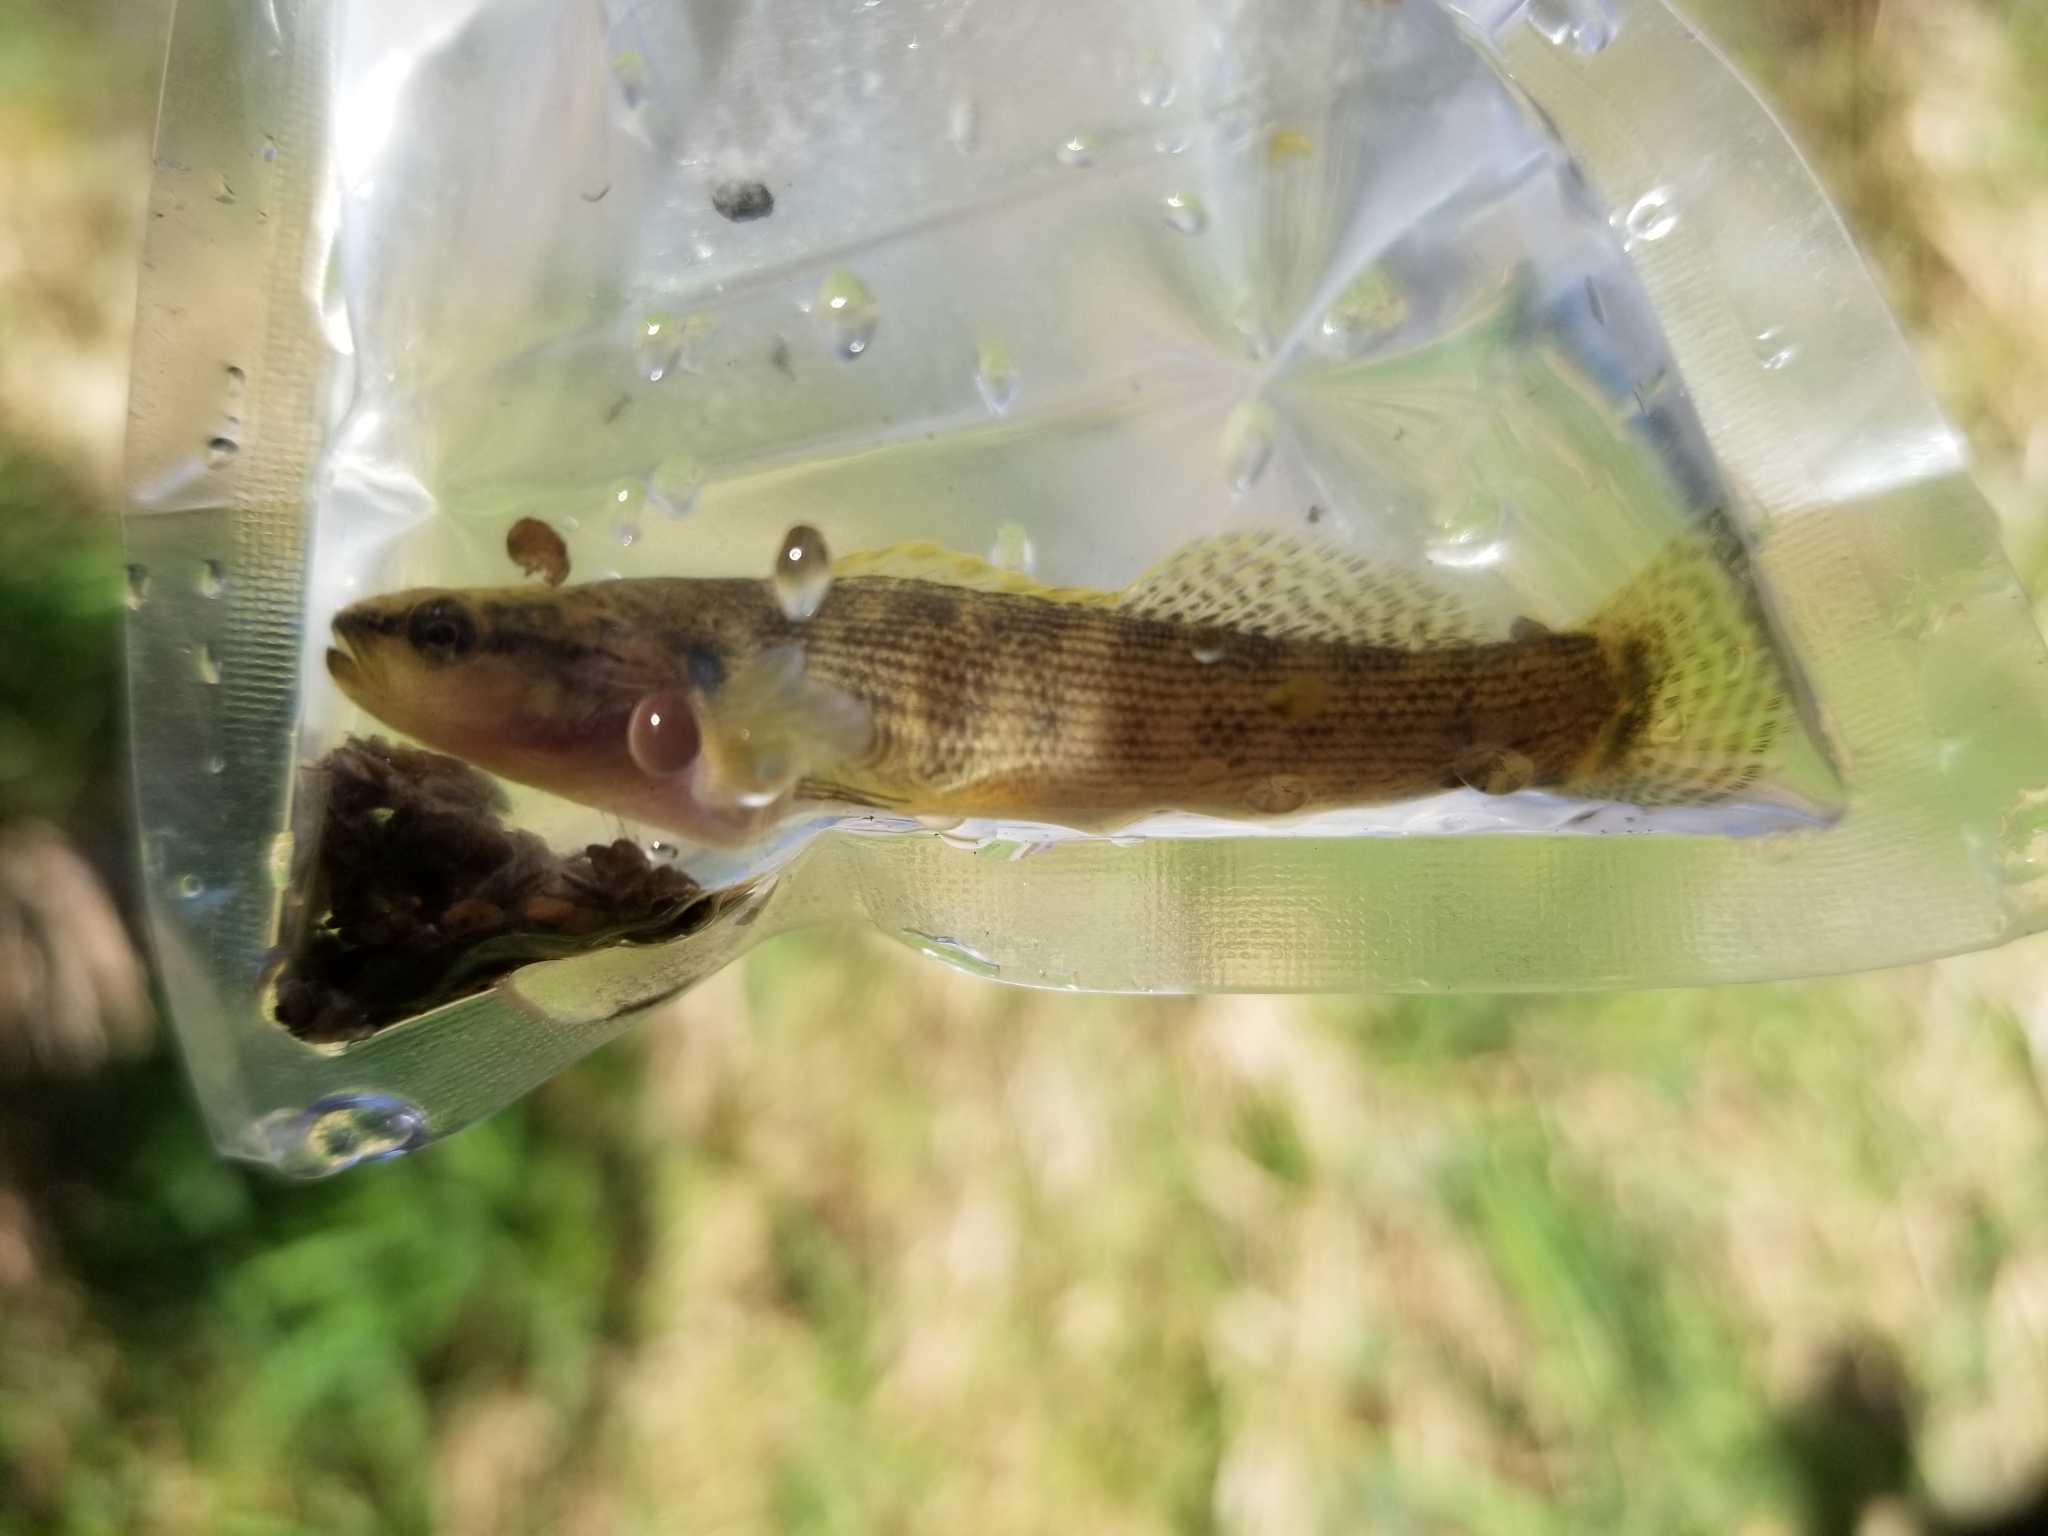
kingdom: Animalia
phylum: Chordata
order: Perciformes
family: Percidae
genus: Etheostoma
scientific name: Etheostoma flabellare
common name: Fantail darter
